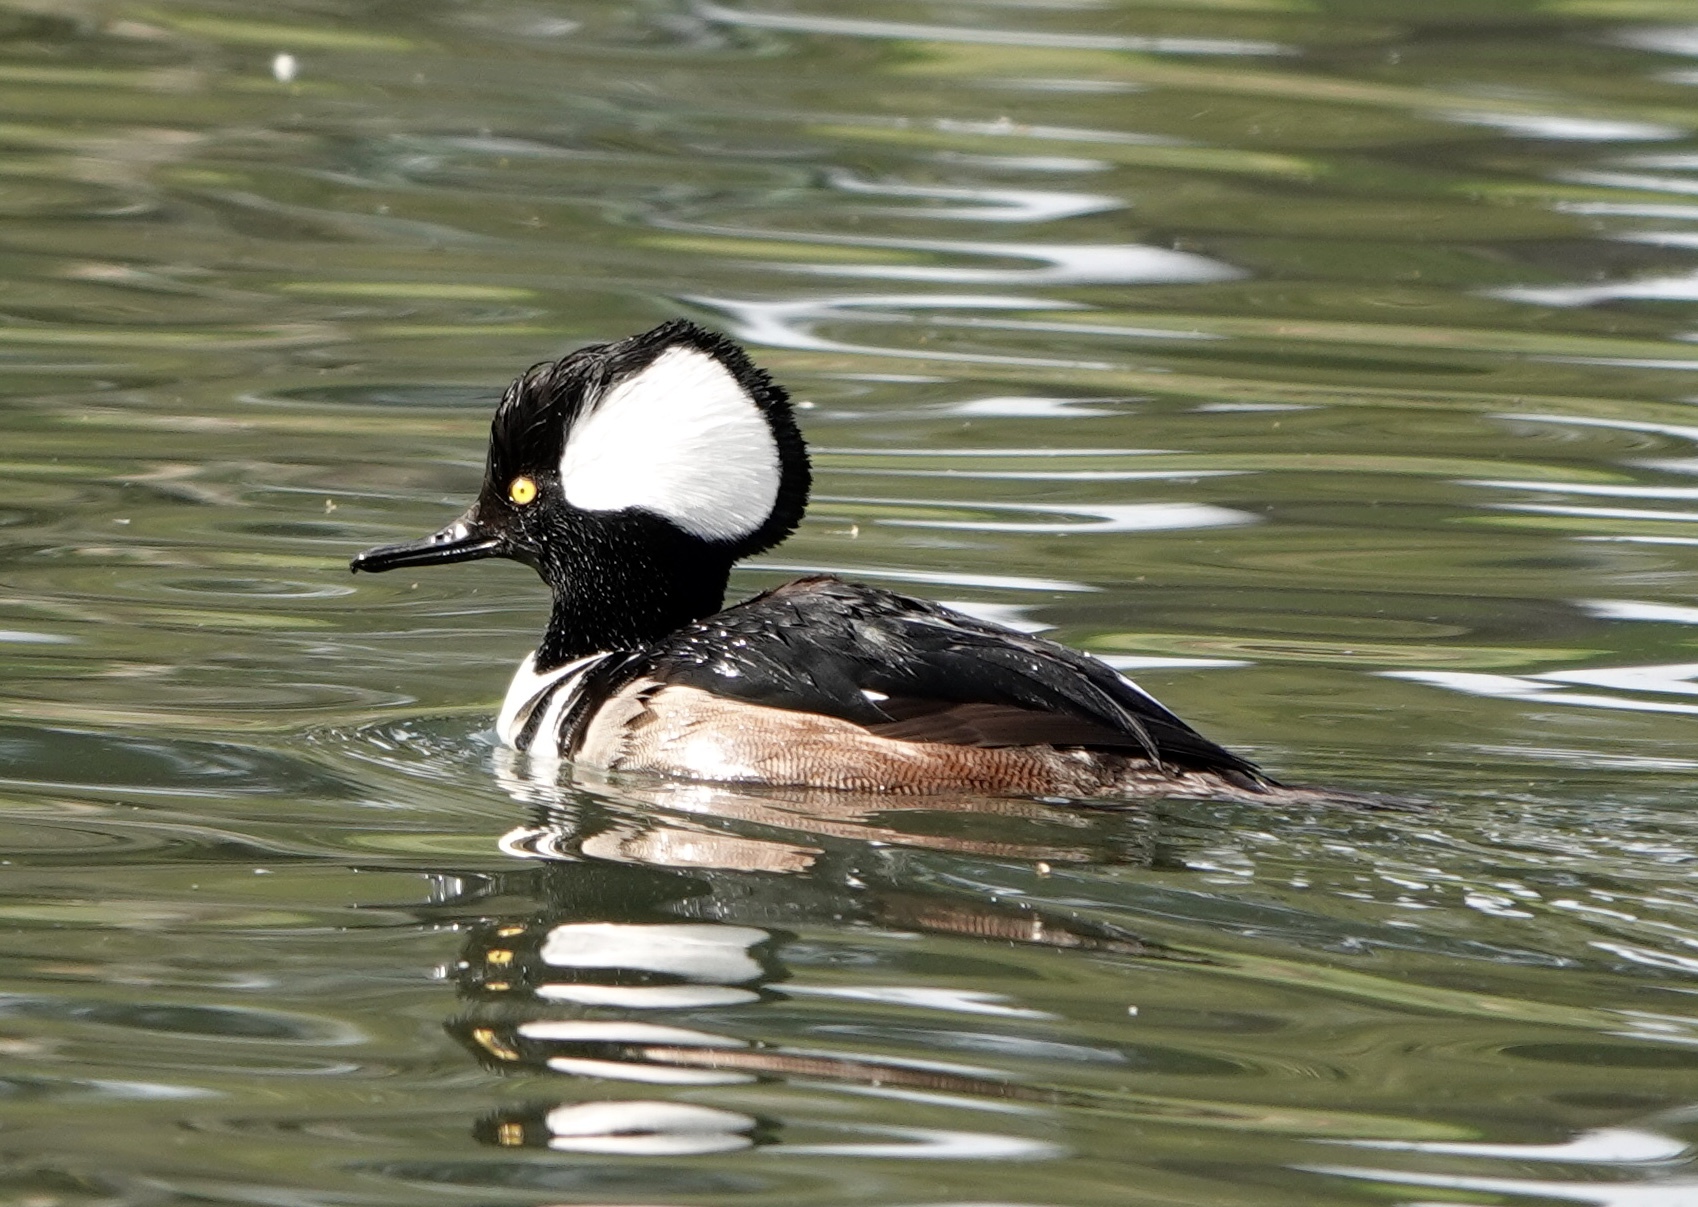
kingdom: Animalia
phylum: Chordata
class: Aves
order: Anseriformes
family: Anatidae
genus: Lophodytes
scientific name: Lophodytes cucullatus
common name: Hooded merganser
